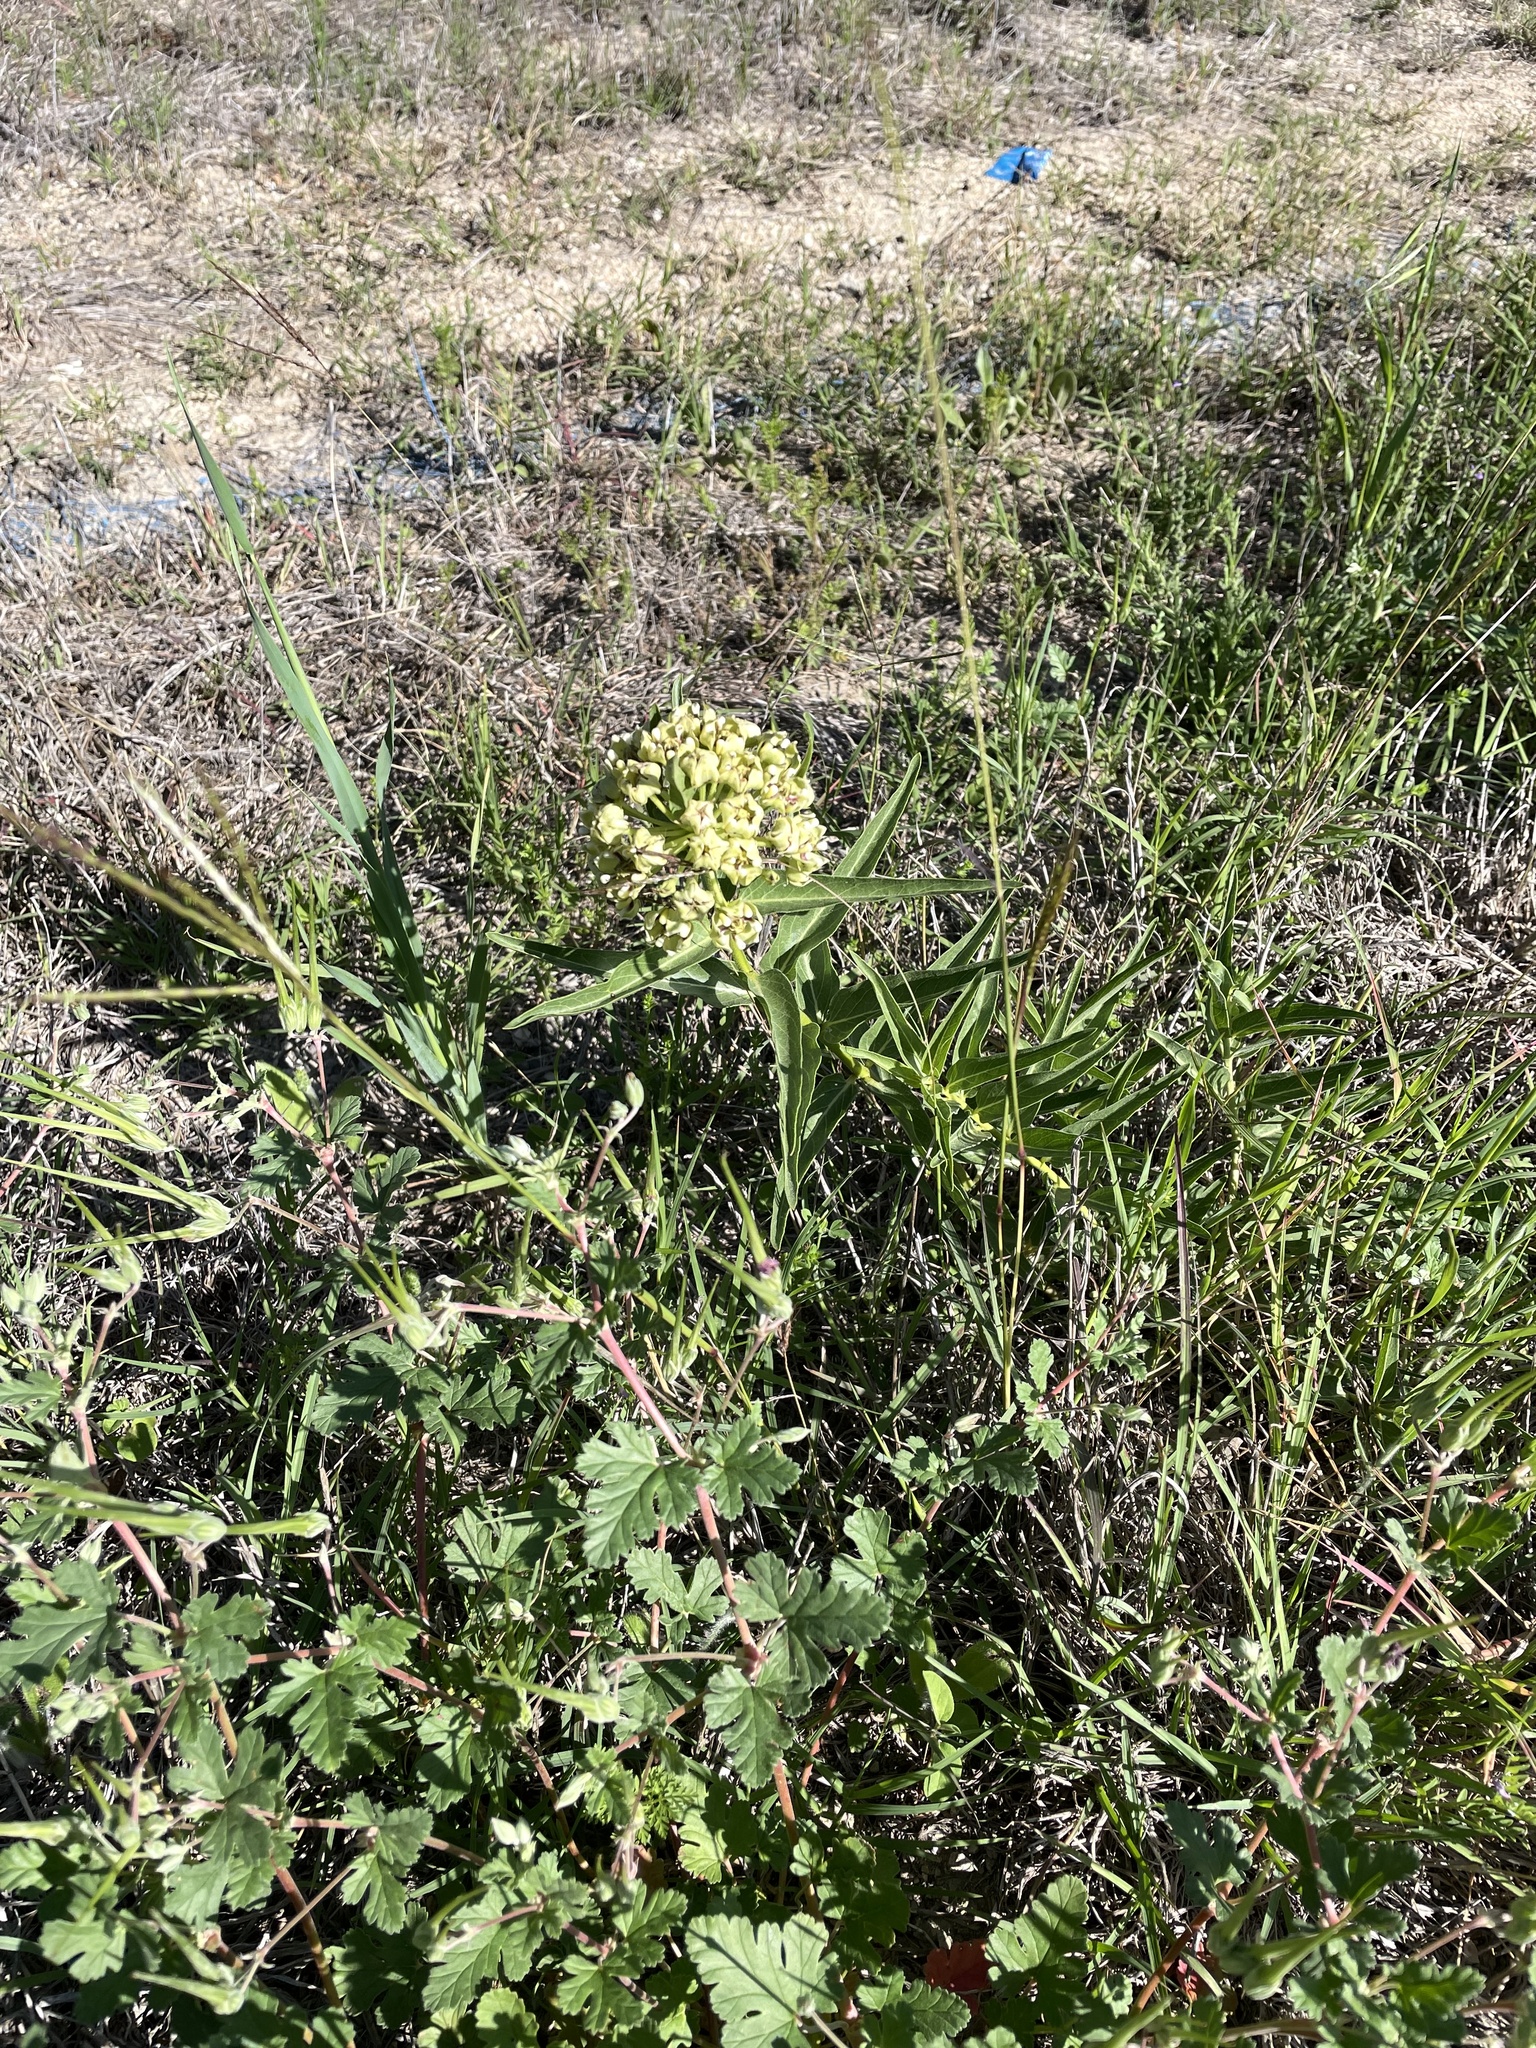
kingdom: Plantae
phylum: Tracheophyta
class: Magnoliopsida
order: Gentianales
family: Apocynaceae
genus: Asclepias
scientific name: Asclepias asperula
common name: Antelope horns
